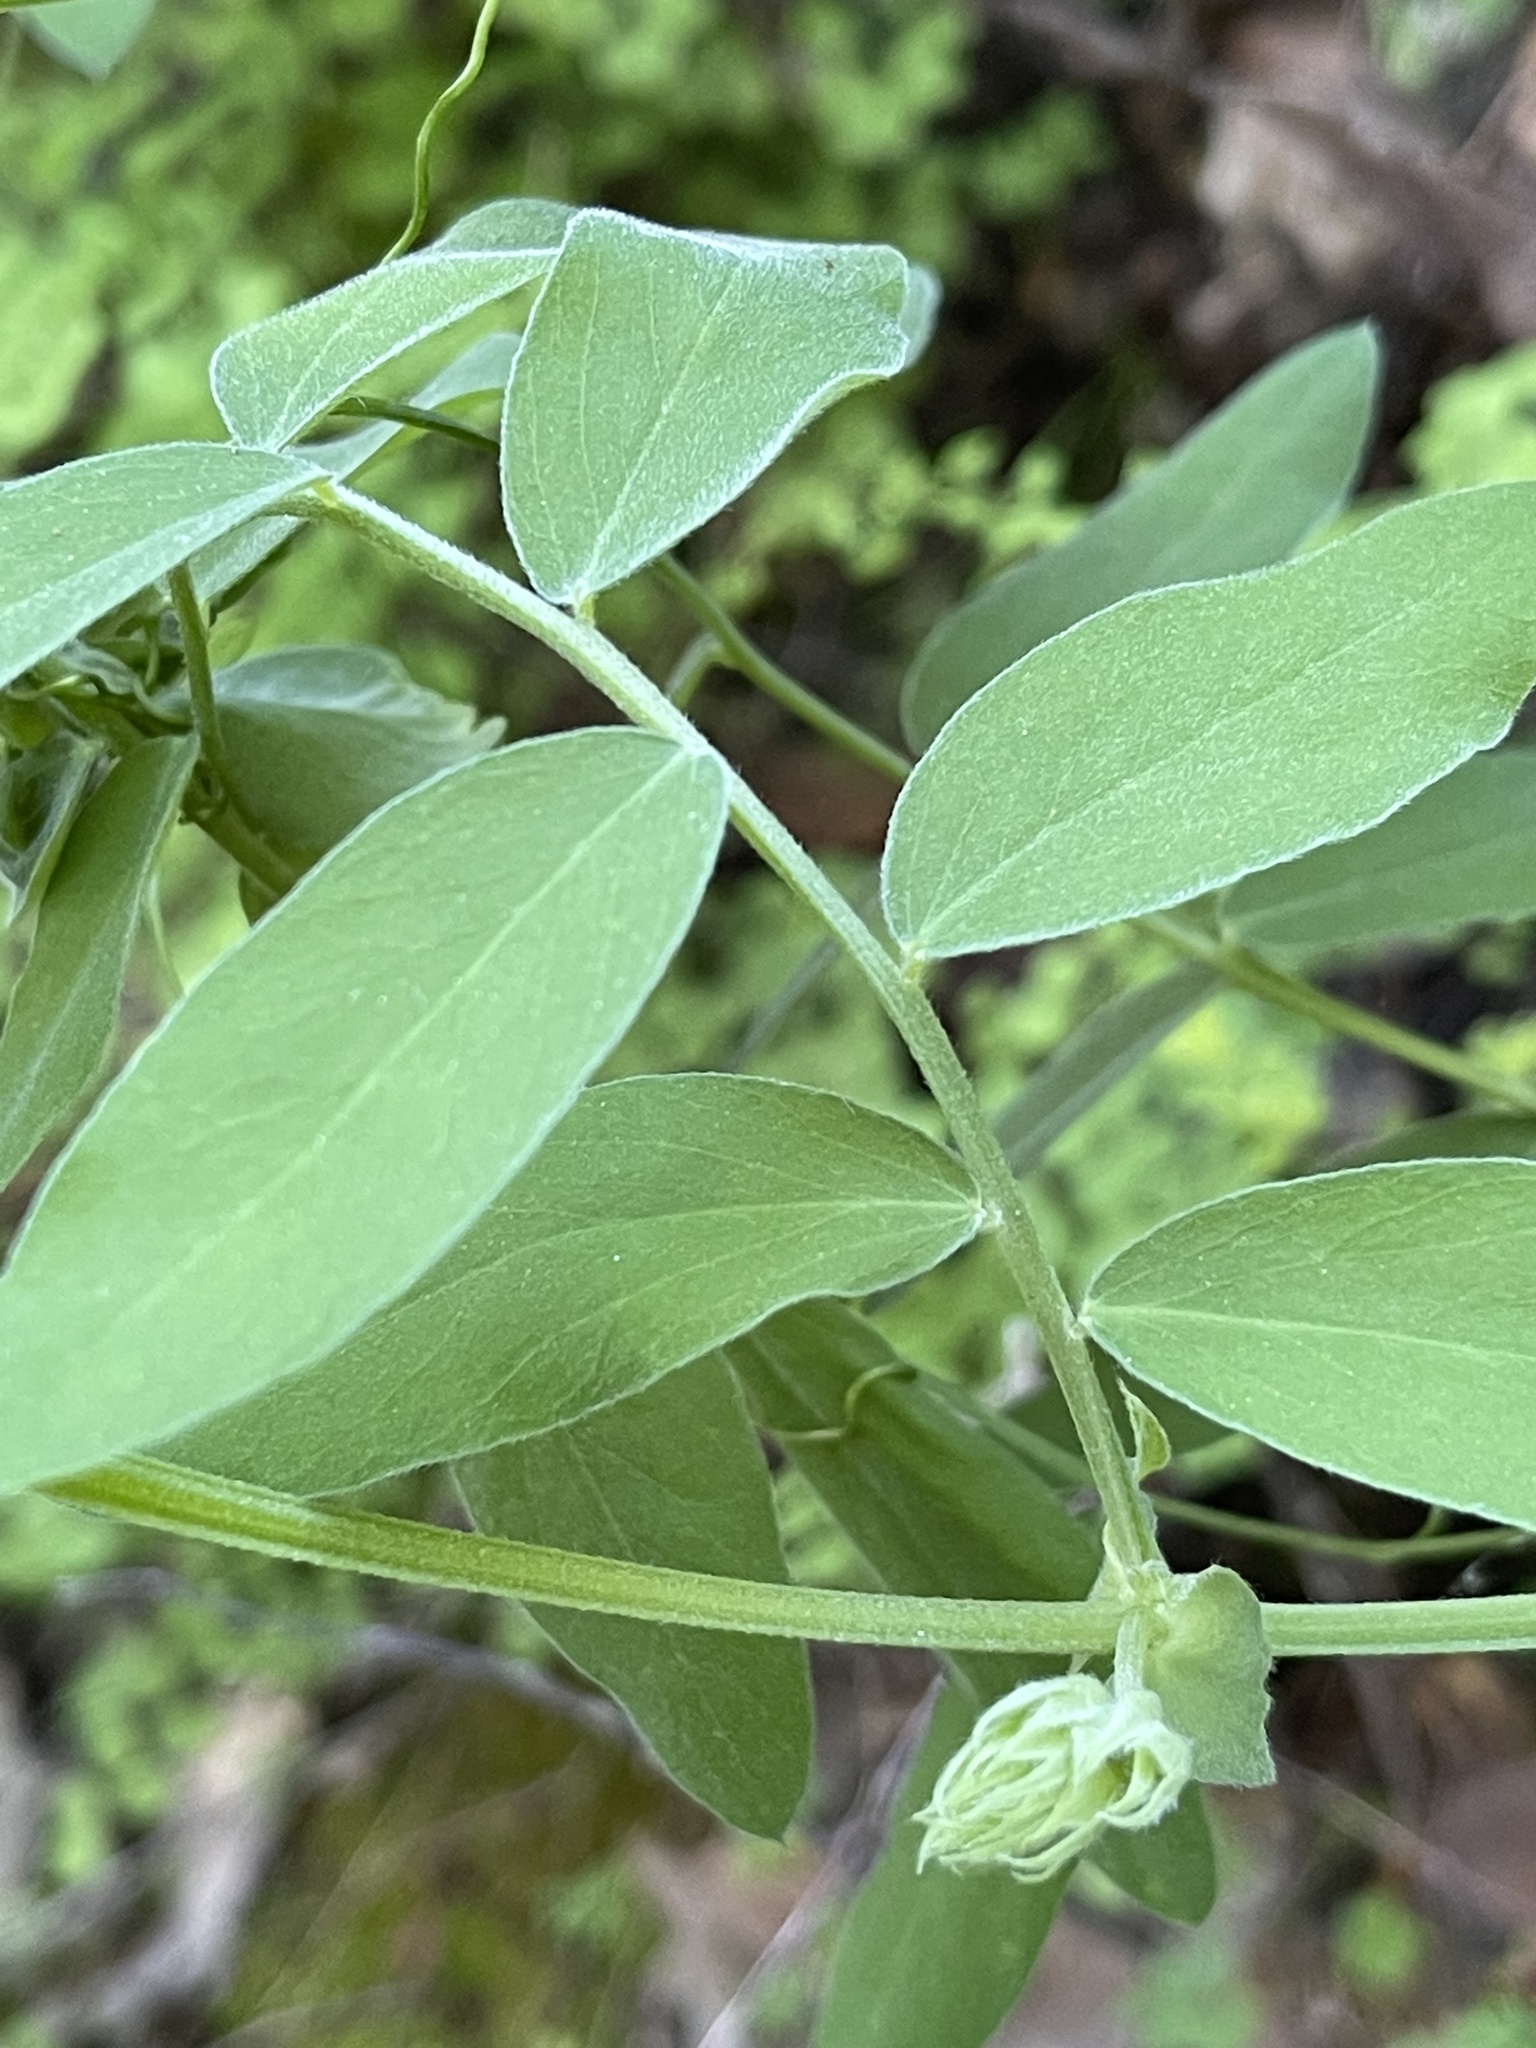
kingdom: Plantae
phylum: Tracheophyta
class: Magnoliopsida
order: Fabales
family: Fabaceae
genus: Lathyrus
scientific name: Lathyrus vestitus
